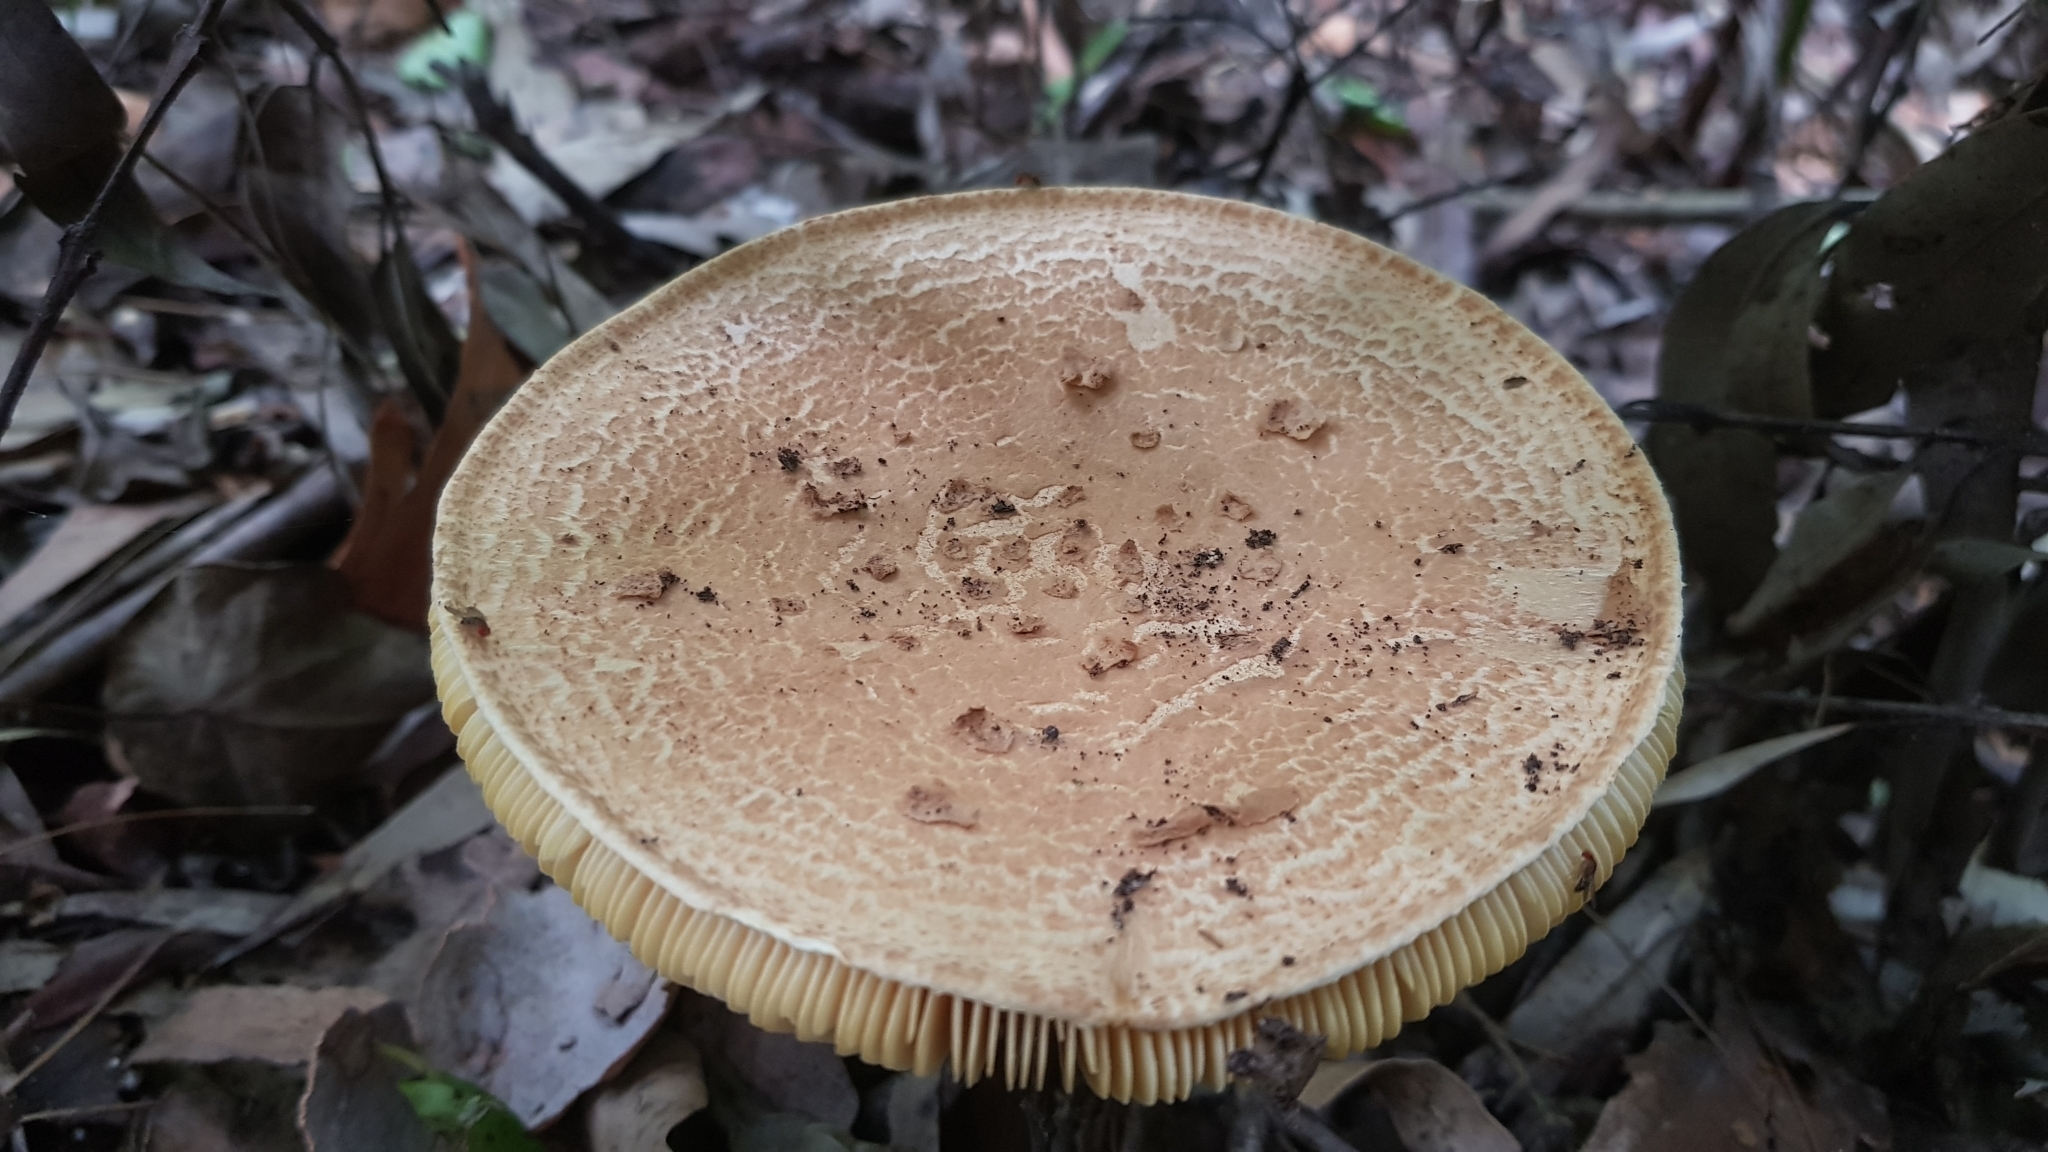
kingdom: Fungi
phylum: Basidiomycota
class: Agaricomycetes
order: Agaricales
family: Amanitaceae
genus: Amanita
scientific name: Amanita ochrophylla
